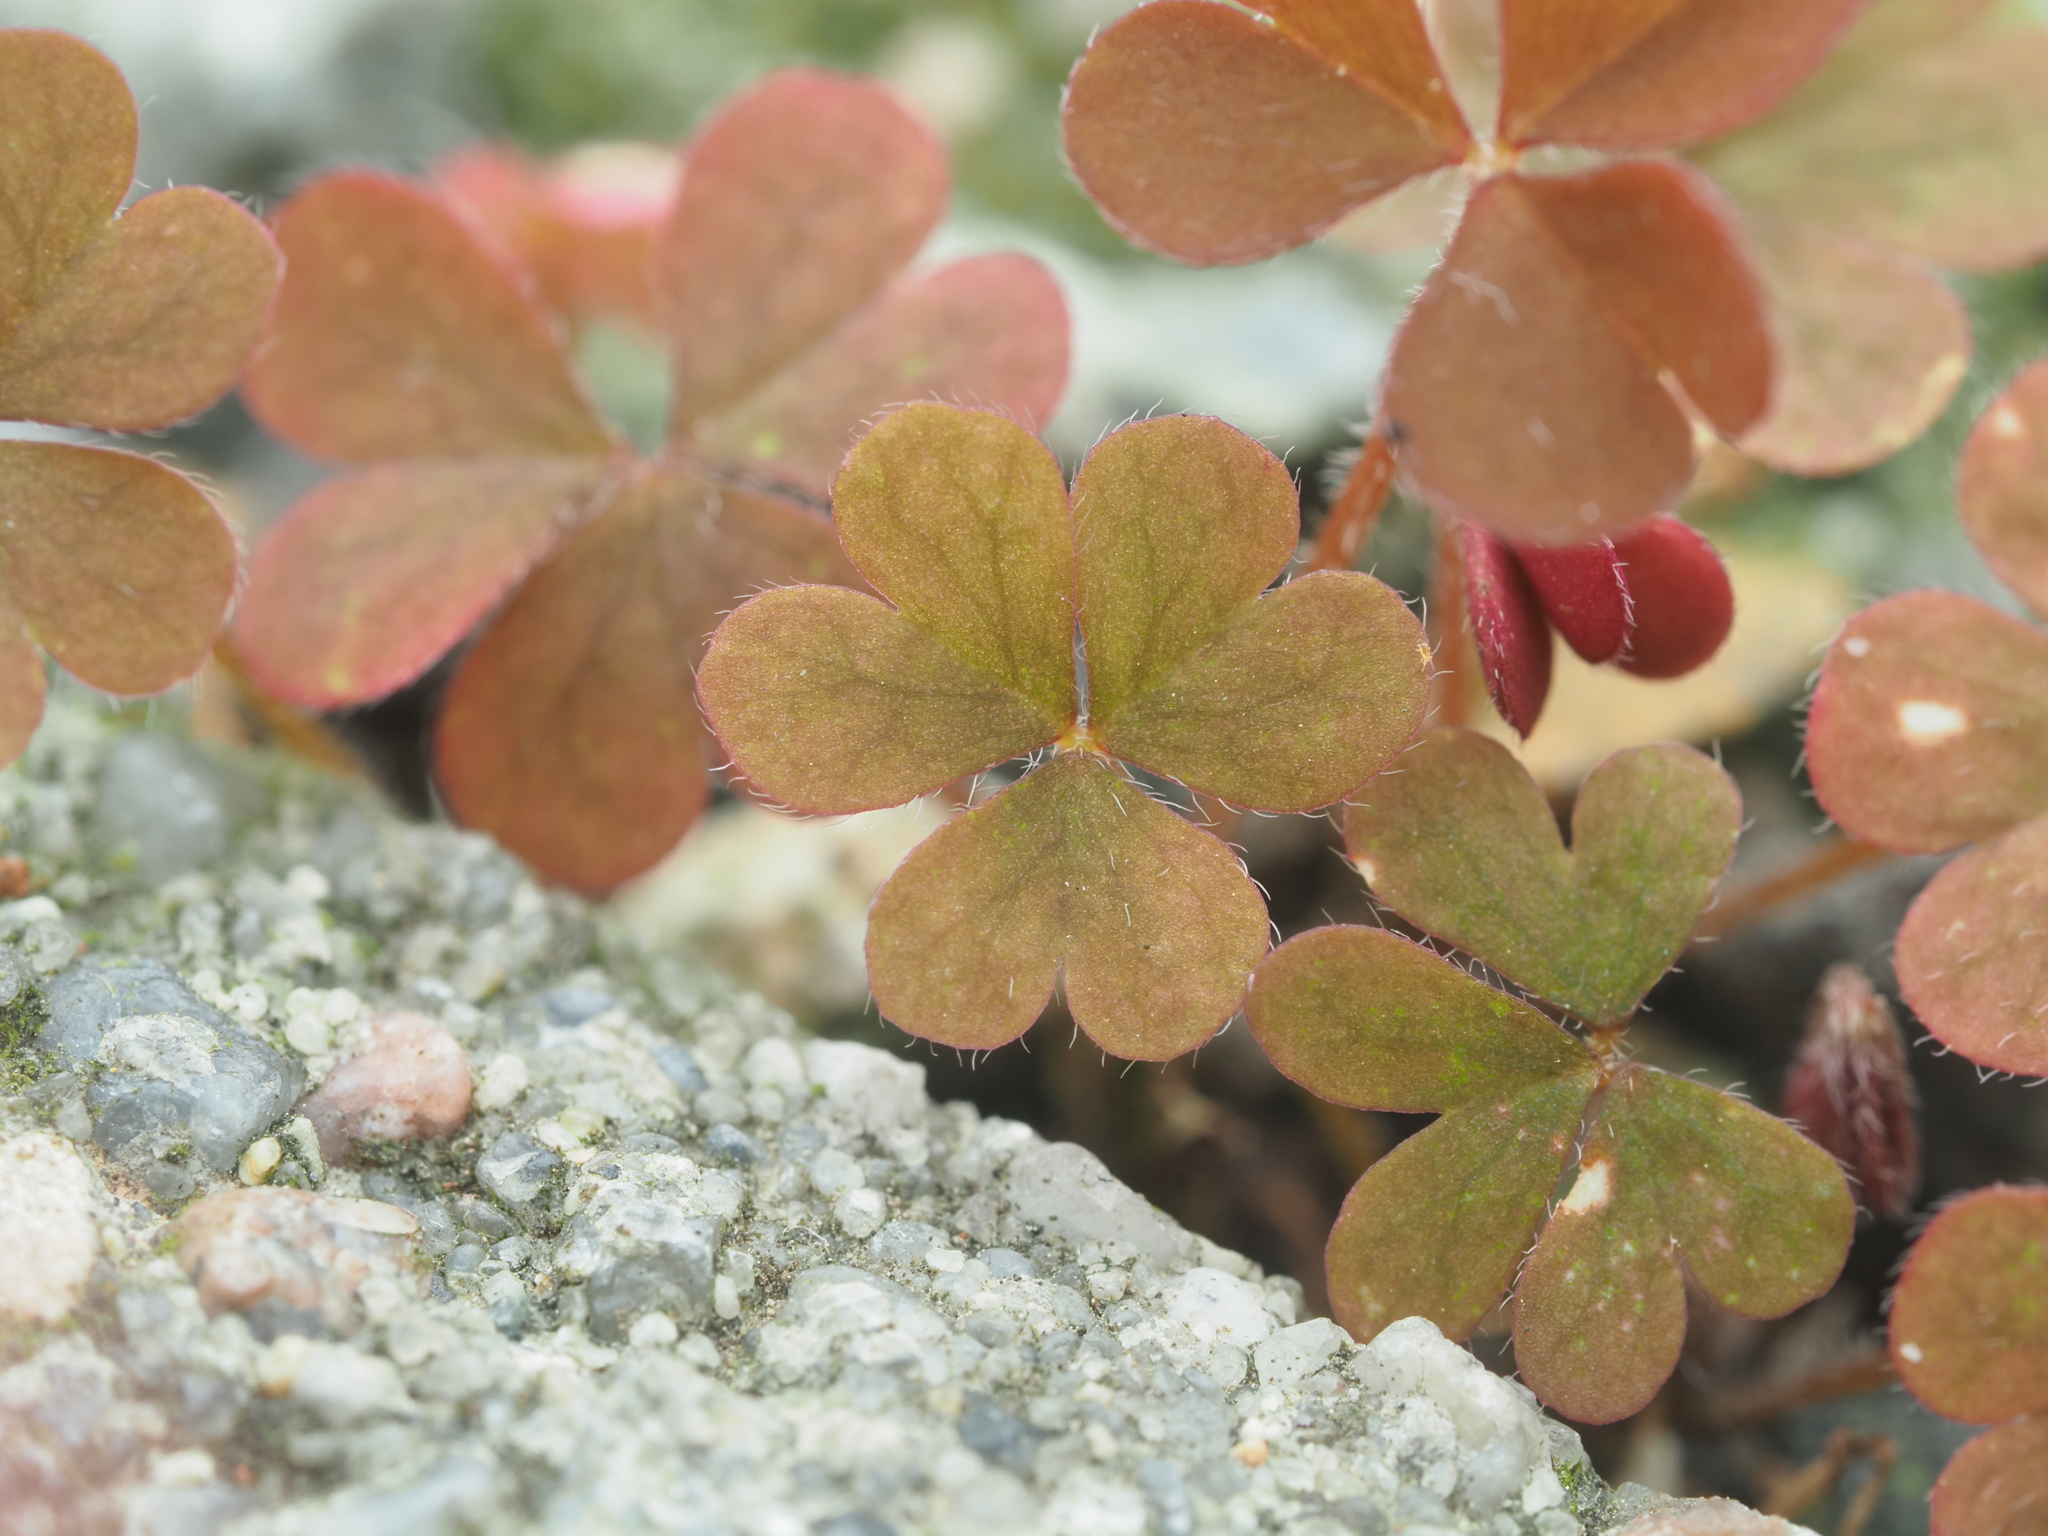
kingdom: Plantae
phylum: Tracheophyta
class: Magnoliopsida
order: Oxalidales
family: Oxalidaceae
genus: Oxalis
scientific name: Oxalis corniculata
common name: Procumbent yellow-sorrel
